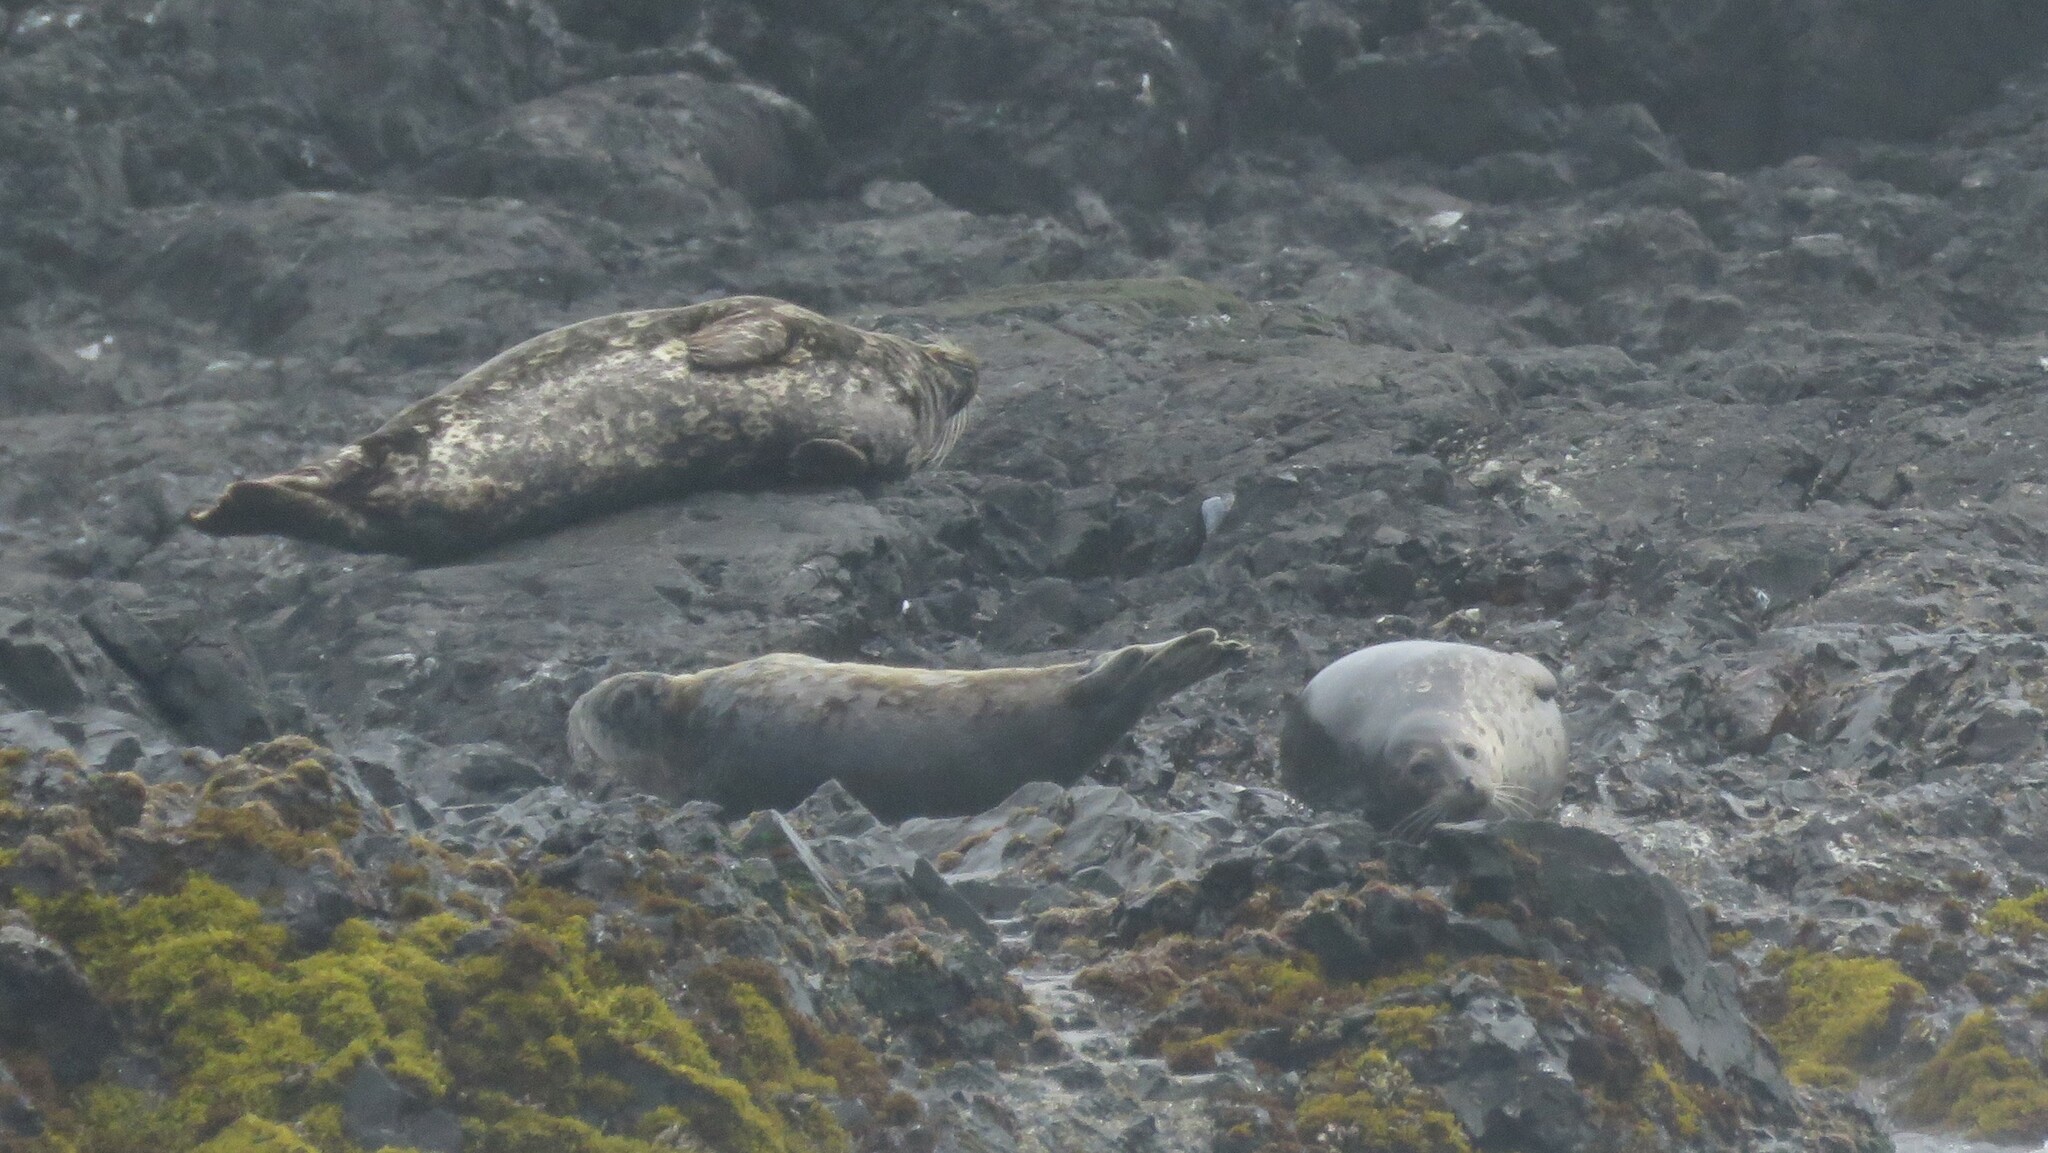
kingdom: Animalia
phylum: Chordata
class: Mammalia
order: Carnivora
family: Phocidae
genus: Phoca
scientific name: Phoca vitulina
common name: Harbor seal
